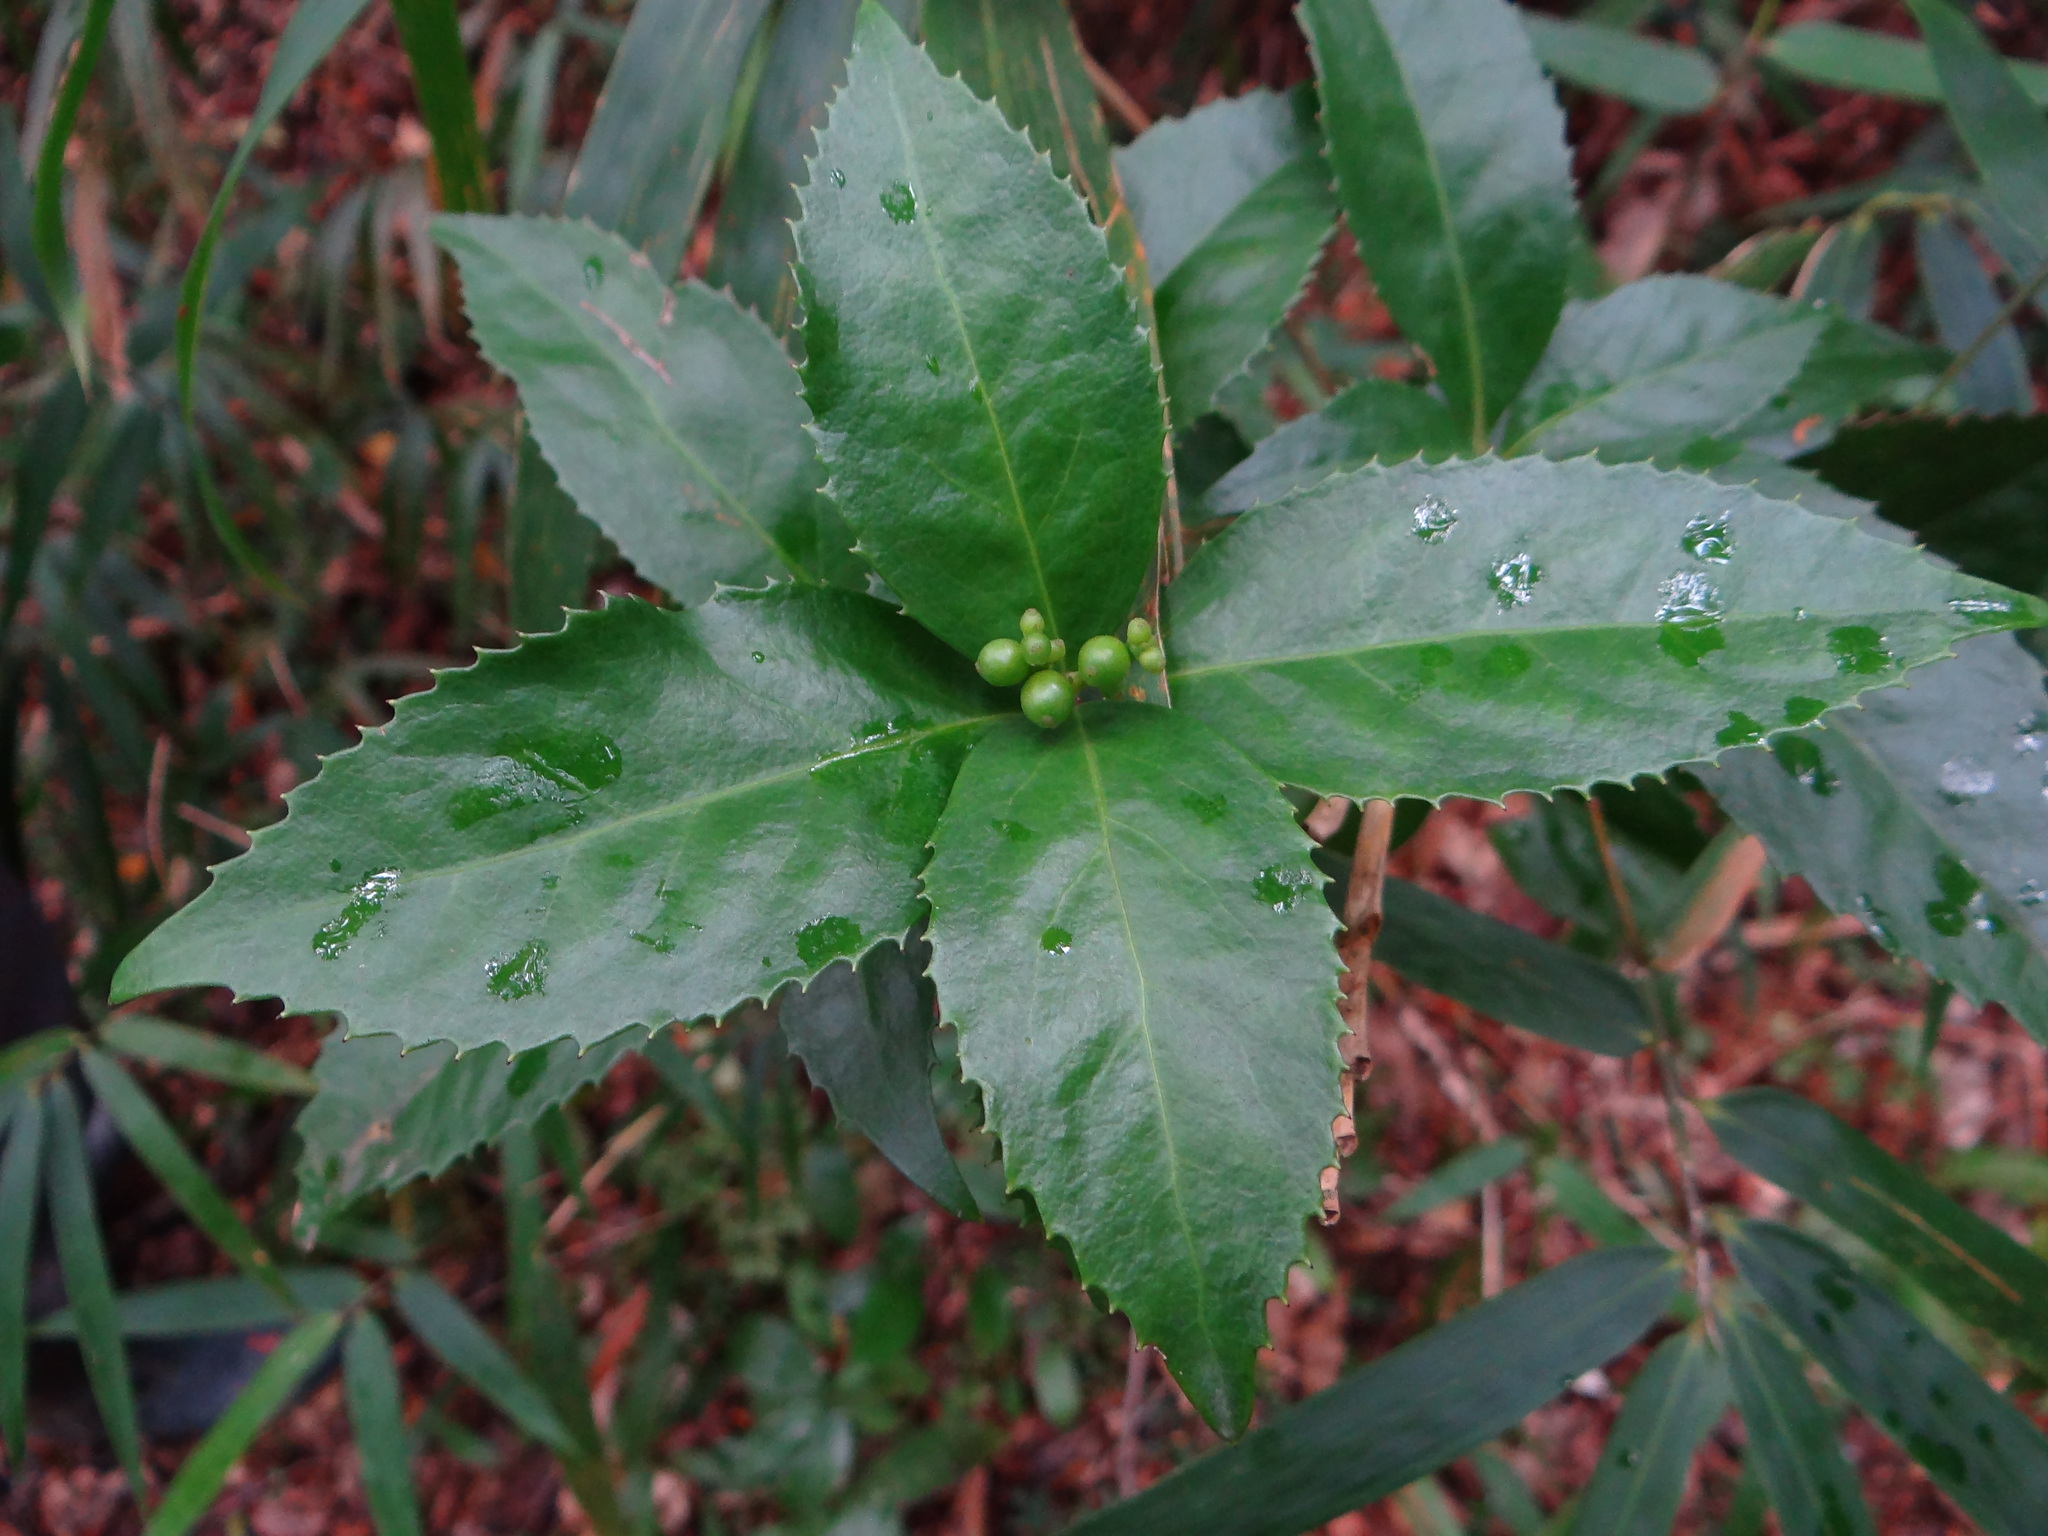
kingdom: Plantae
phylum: Tracheophyta
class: Magnoliopsida
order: Chloranthales
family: Chloranthaceae
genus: Sarcandra
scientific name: Sarcandra glabra
